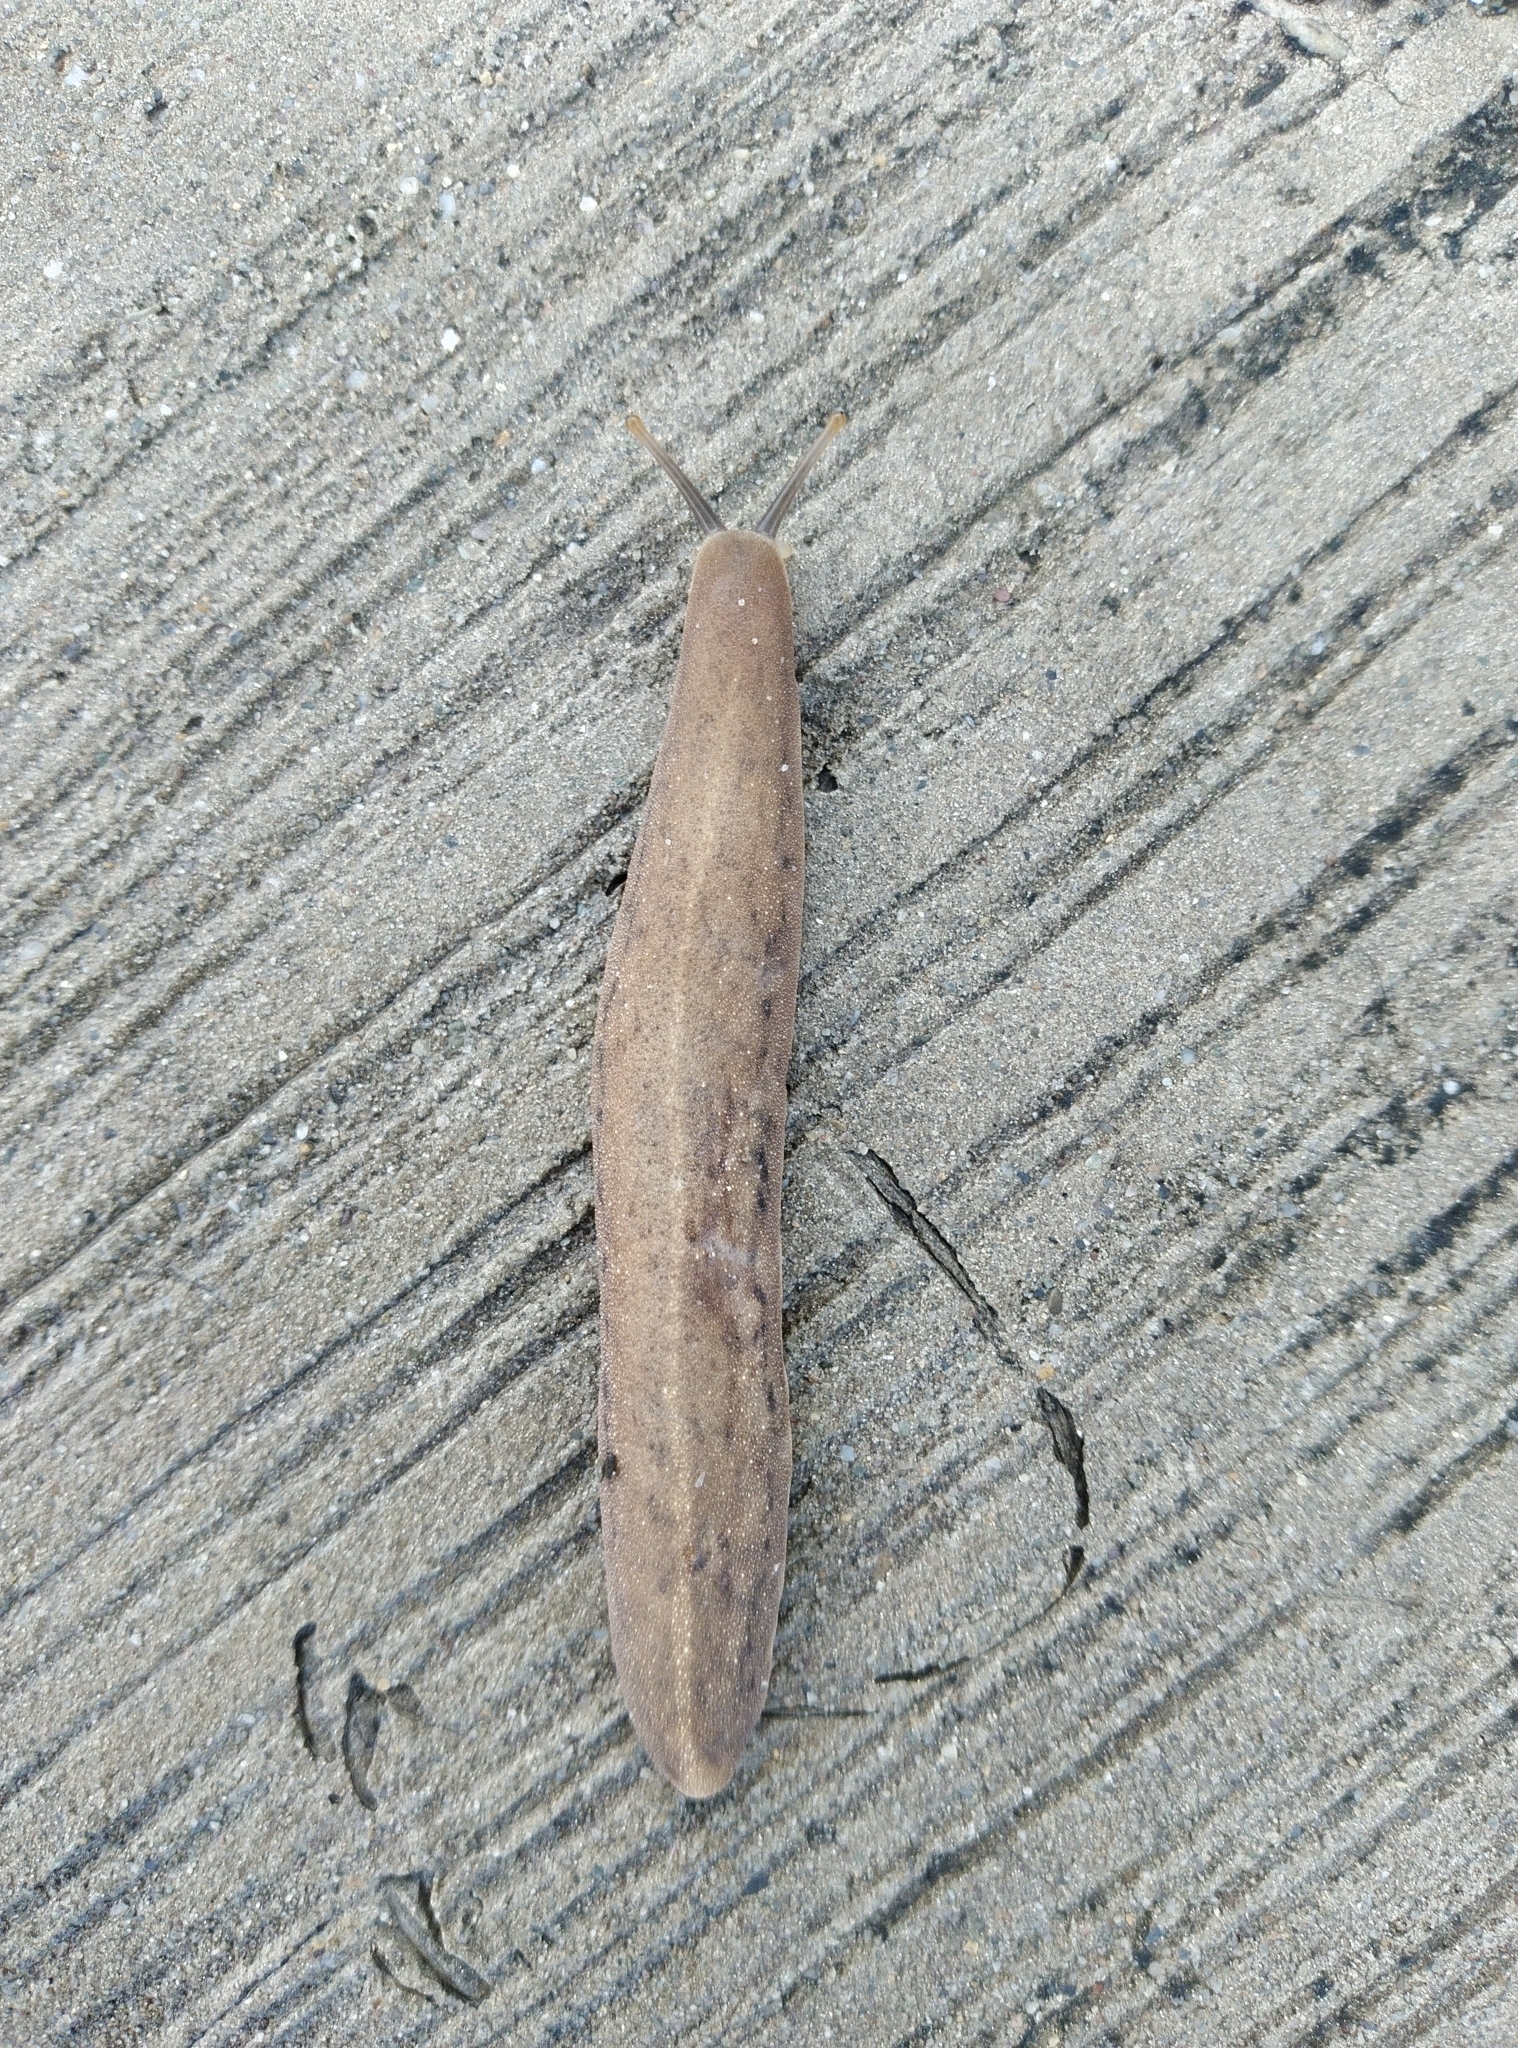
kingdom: Animalia
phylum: Mollusca
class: Gastropoda
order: Systellommatophora
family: Veronicellidae
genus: Laevicaulis
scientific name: Laevicaulis alte
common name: Tropical leatherleaf
